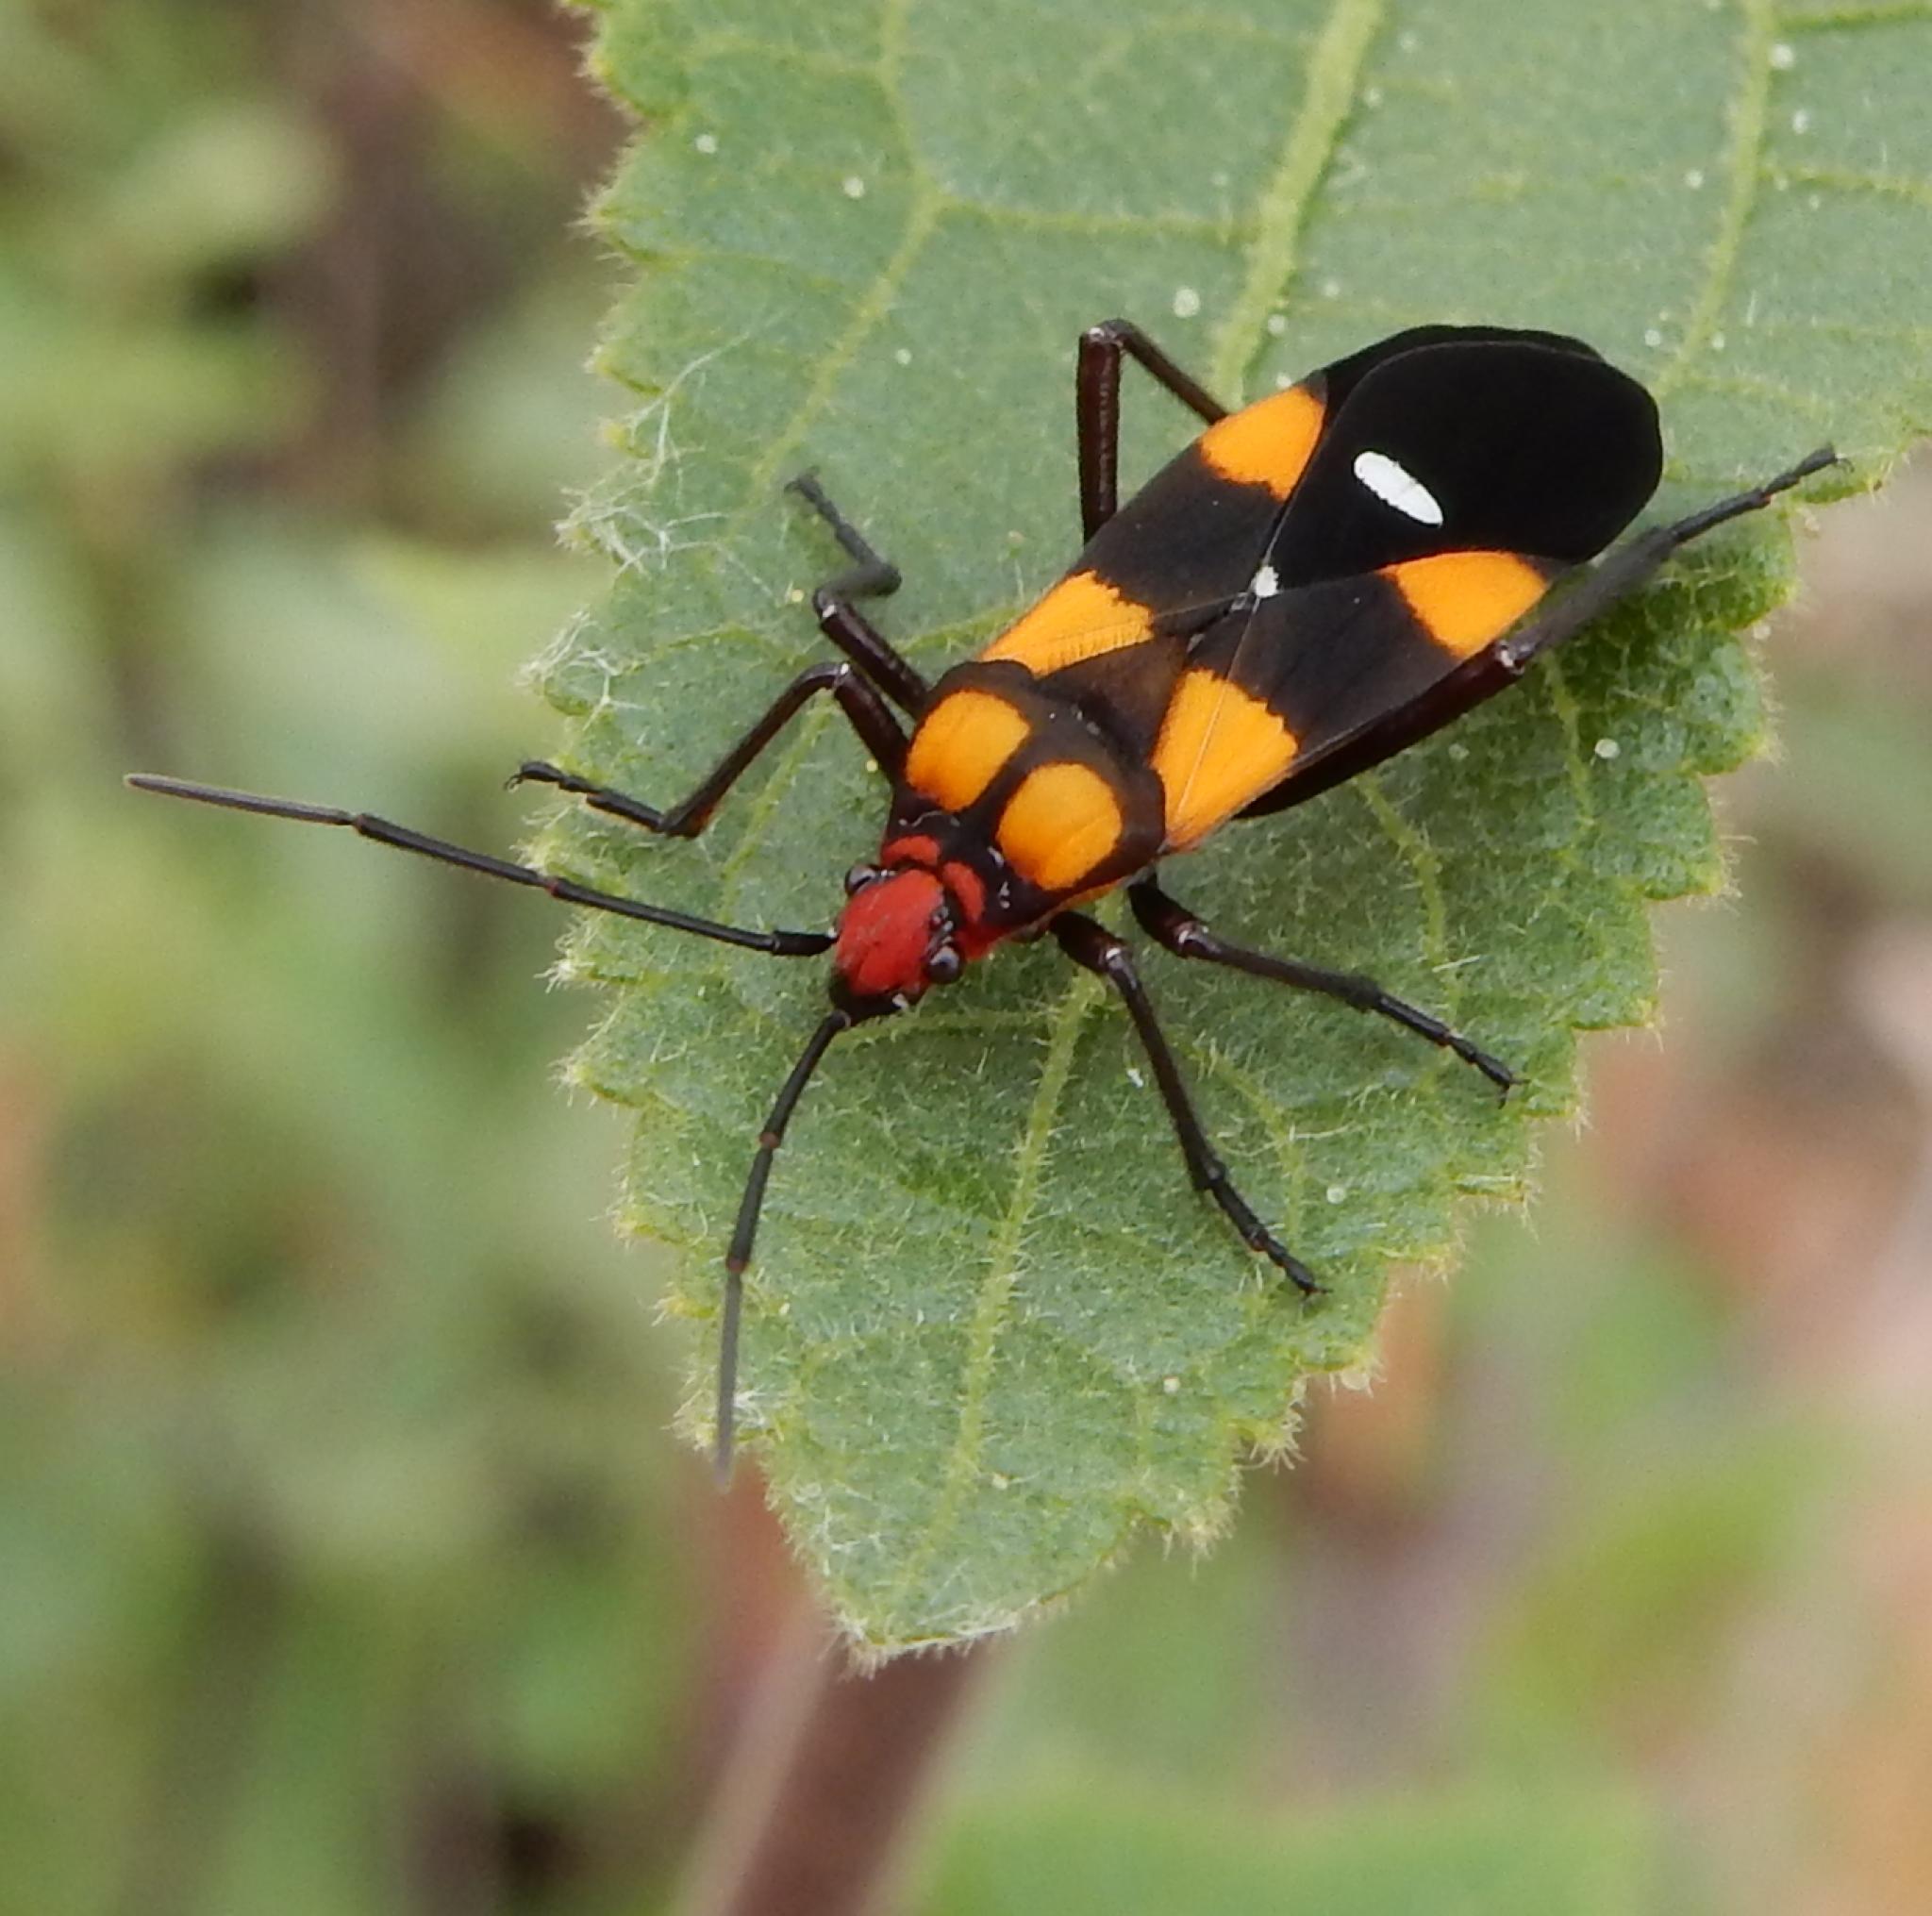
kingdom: Animalia
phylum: Arthropoda
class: Insecta
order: Hemiptera
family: Lygaeidae
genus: Oncopeltus
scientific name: Oncopeltus famelicus
